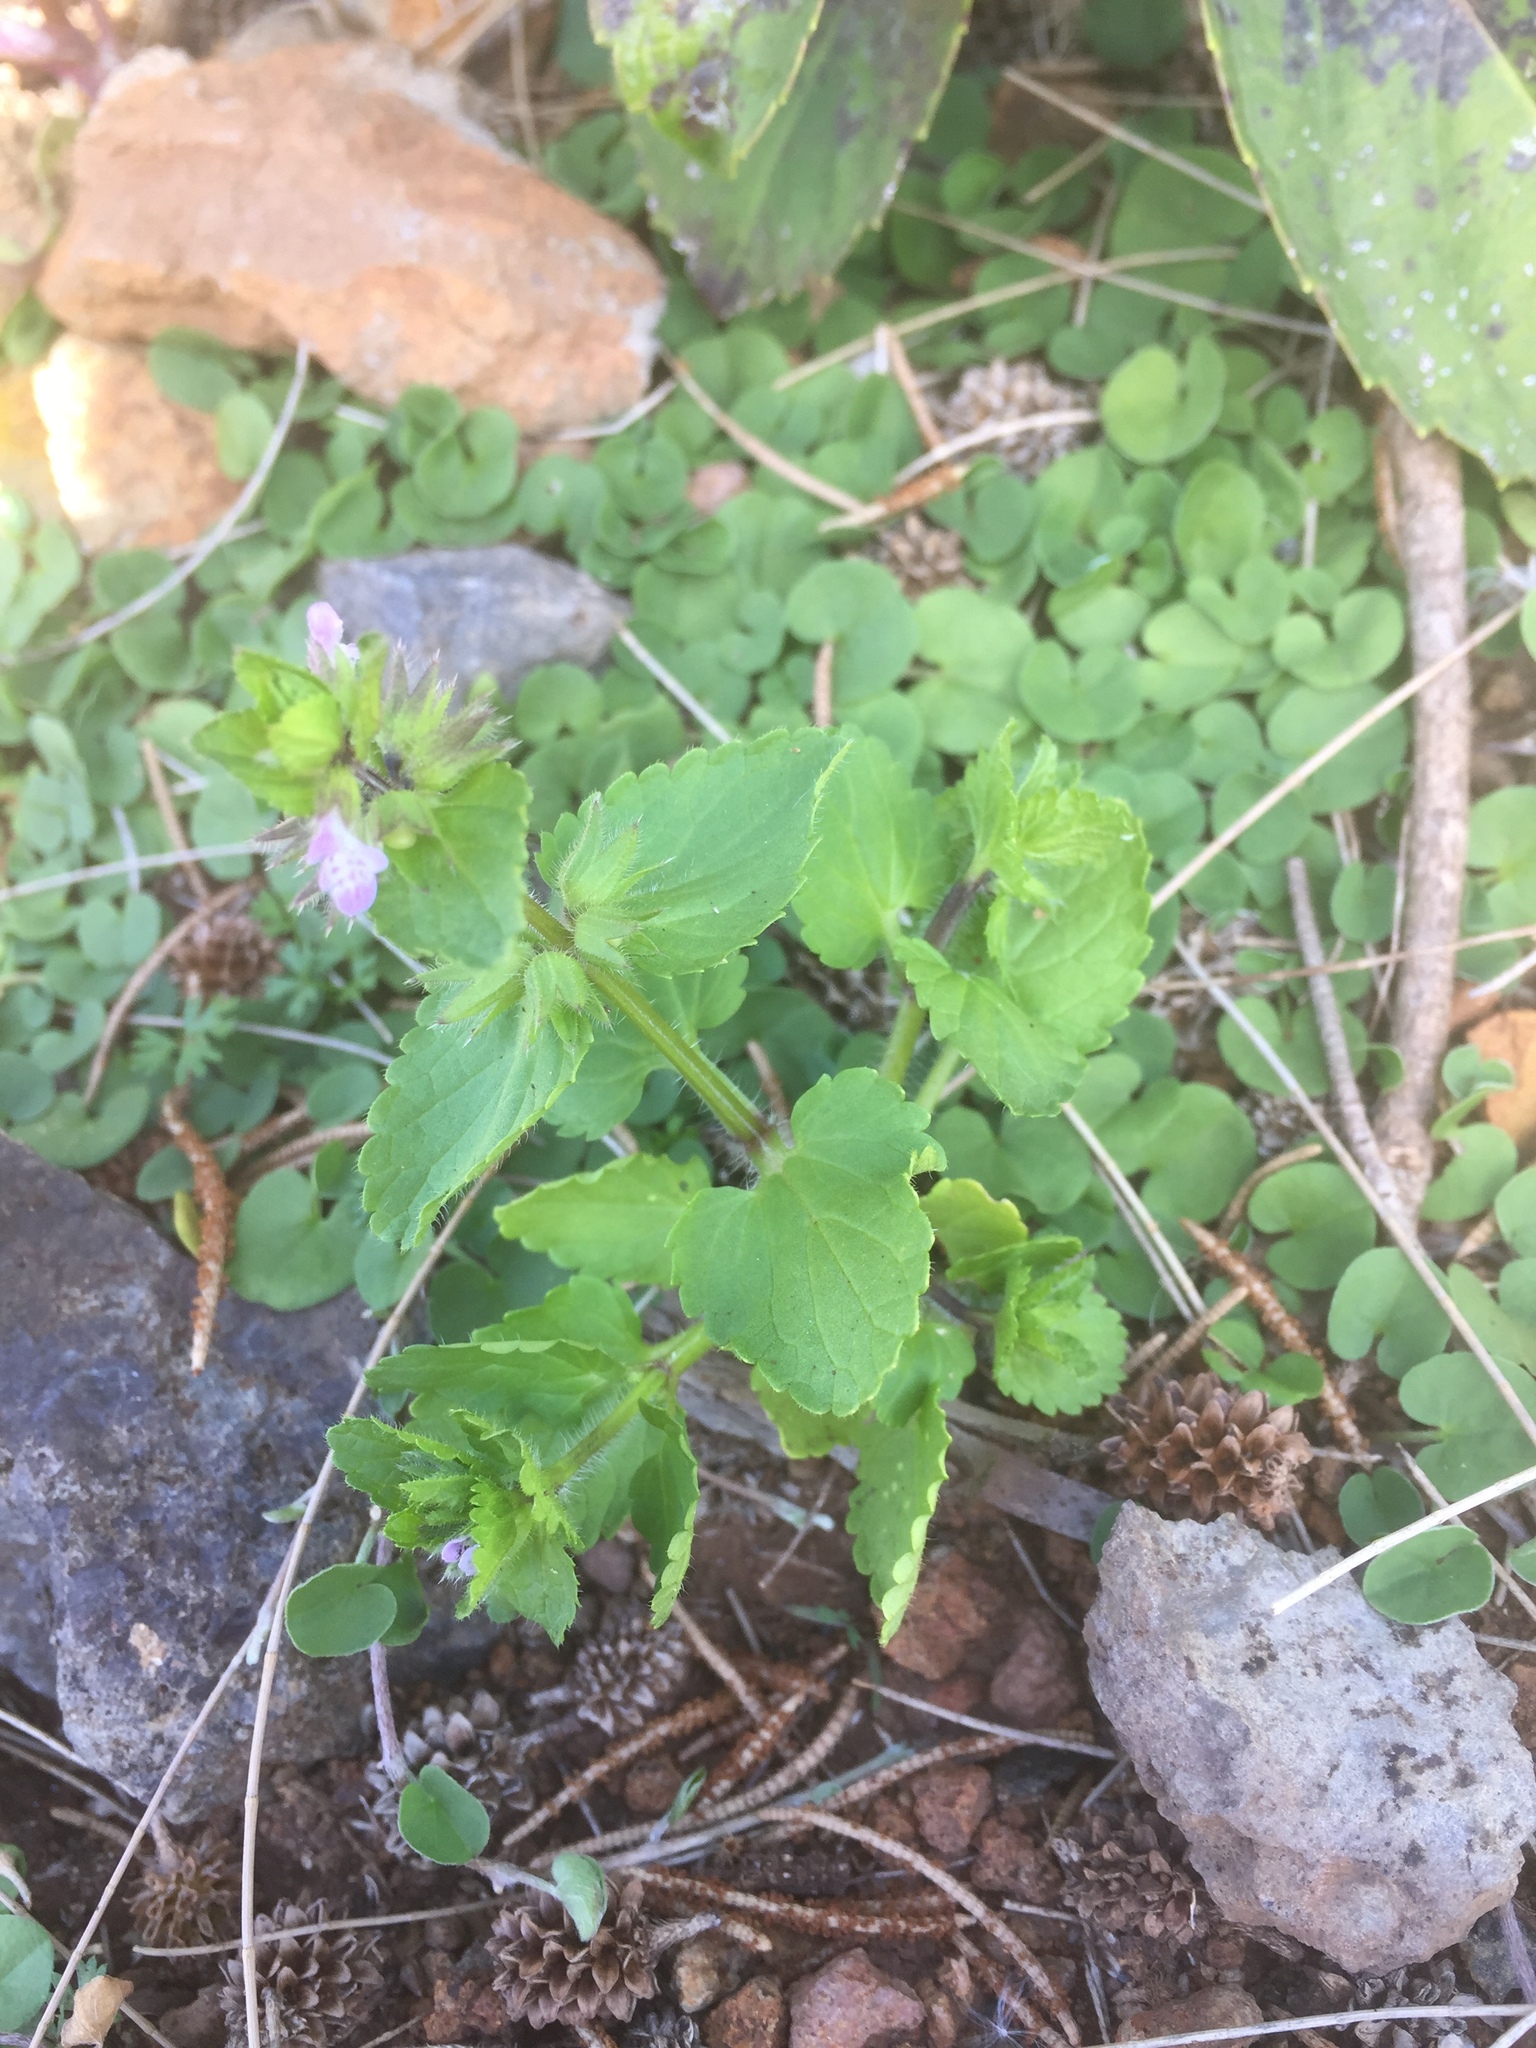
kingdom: Plantae
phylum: Tracheophyta
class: Magnoliopsida
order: Lamiales
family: Lamiaceae
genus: Stachys
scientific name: Stachys arvensis
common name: Field woundwort
